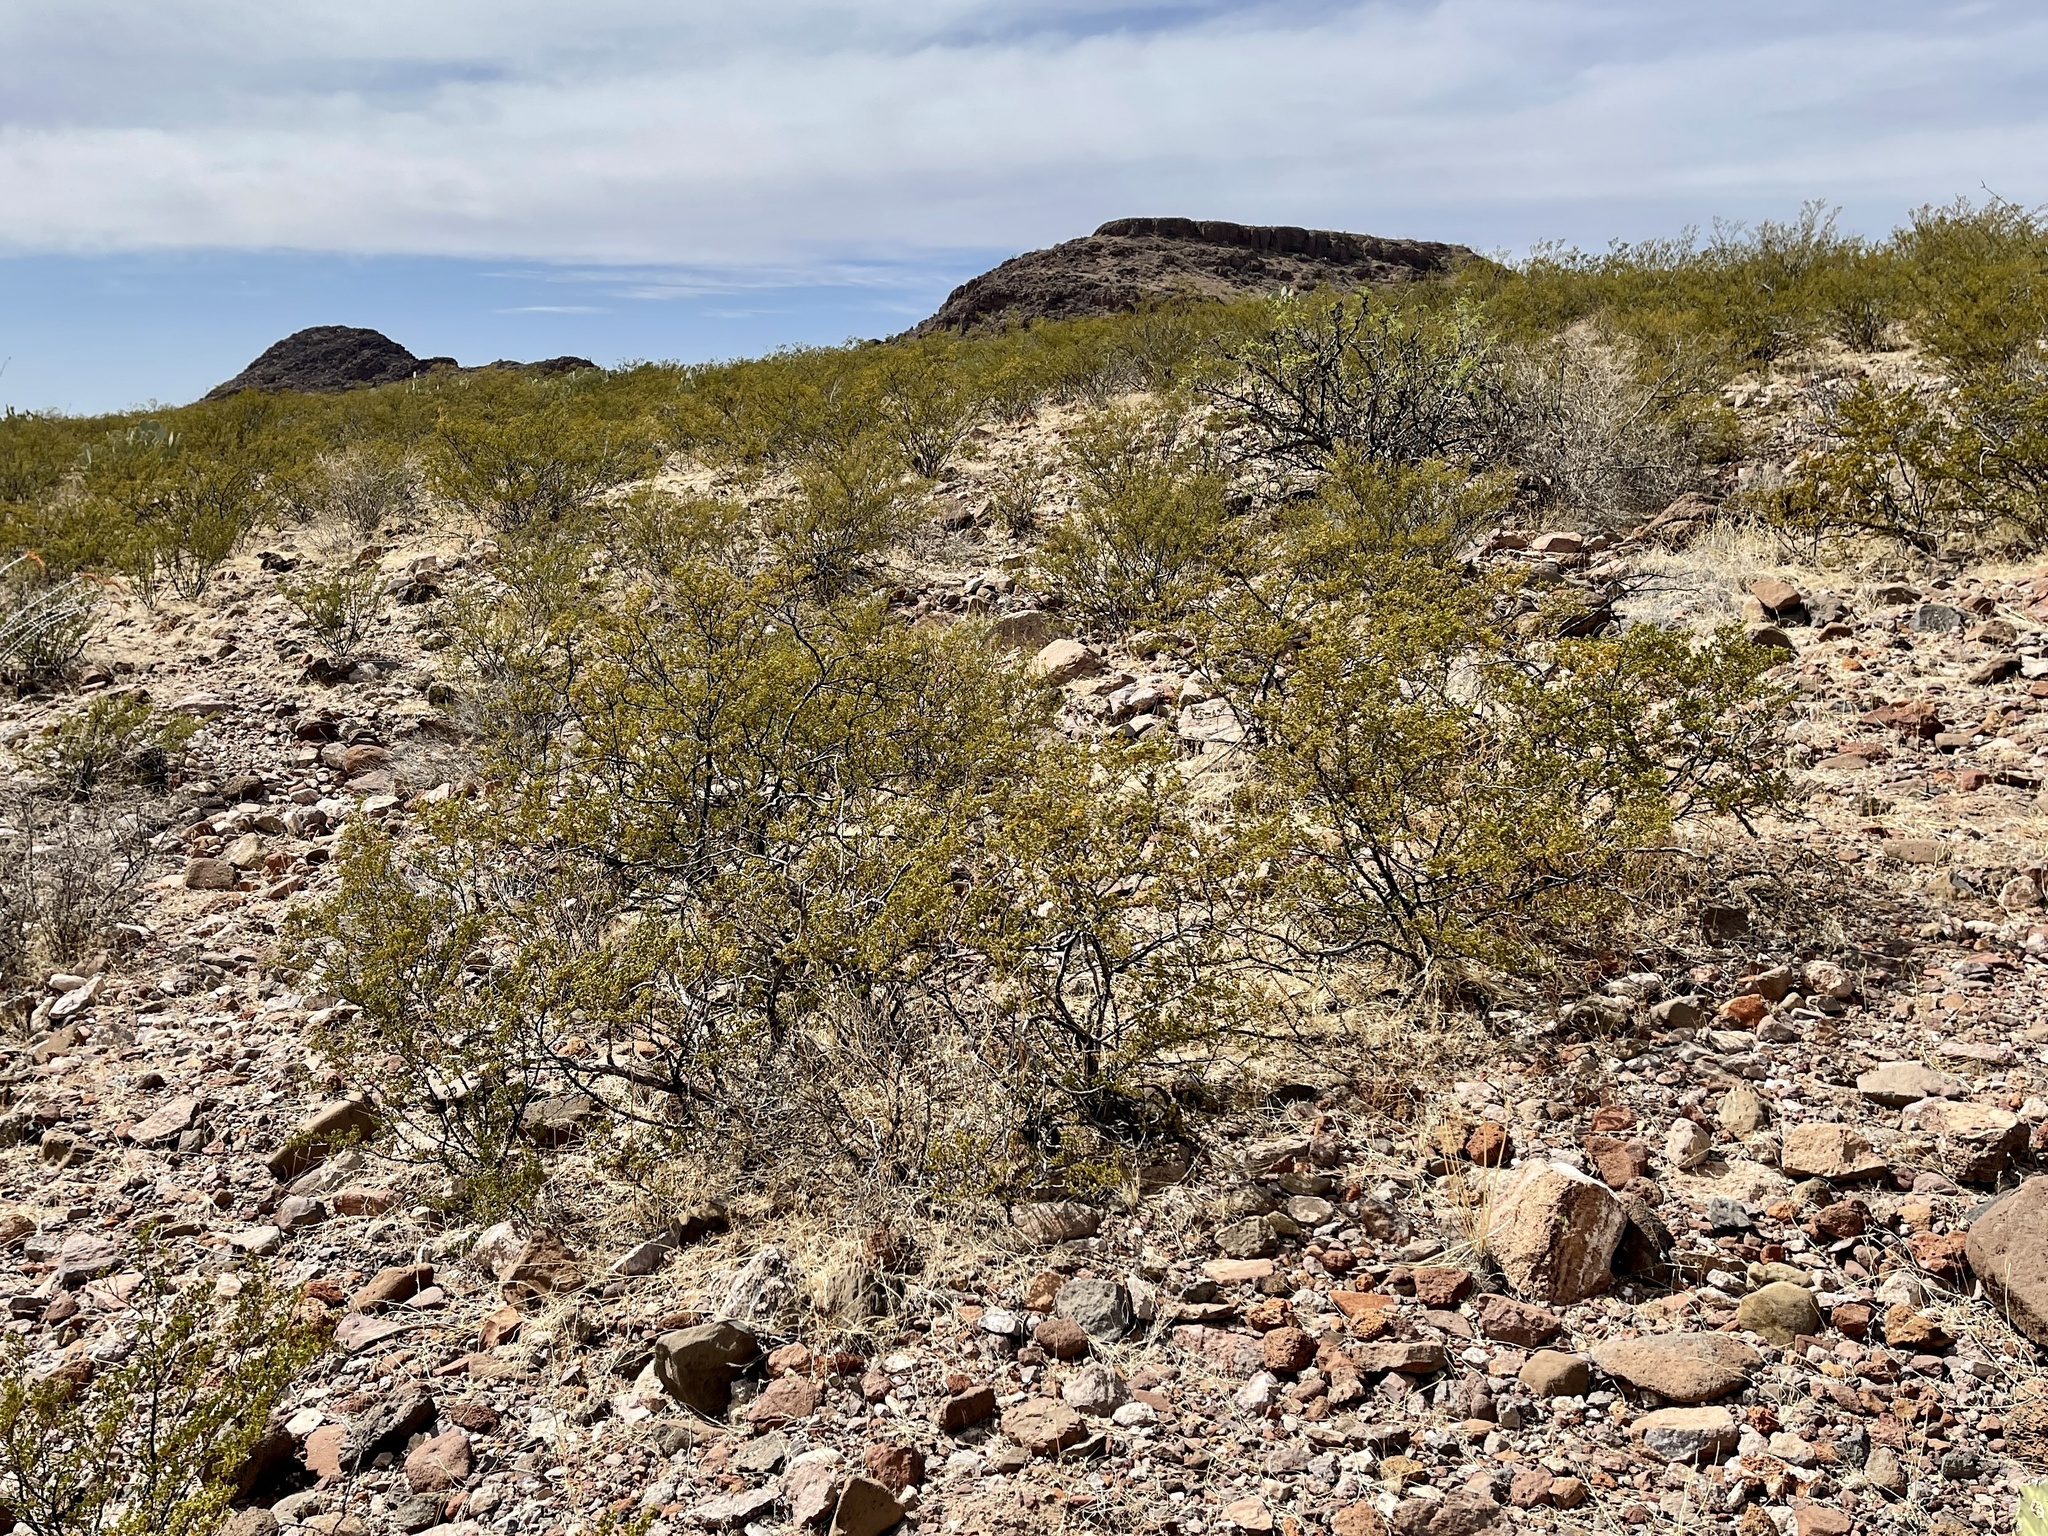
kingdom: Plantae
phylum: Tracheophyta
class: Magnoliopsida
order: Zygophyllales
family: Zygophyllaceae
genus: Larrea
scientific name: Larrea tridentata
